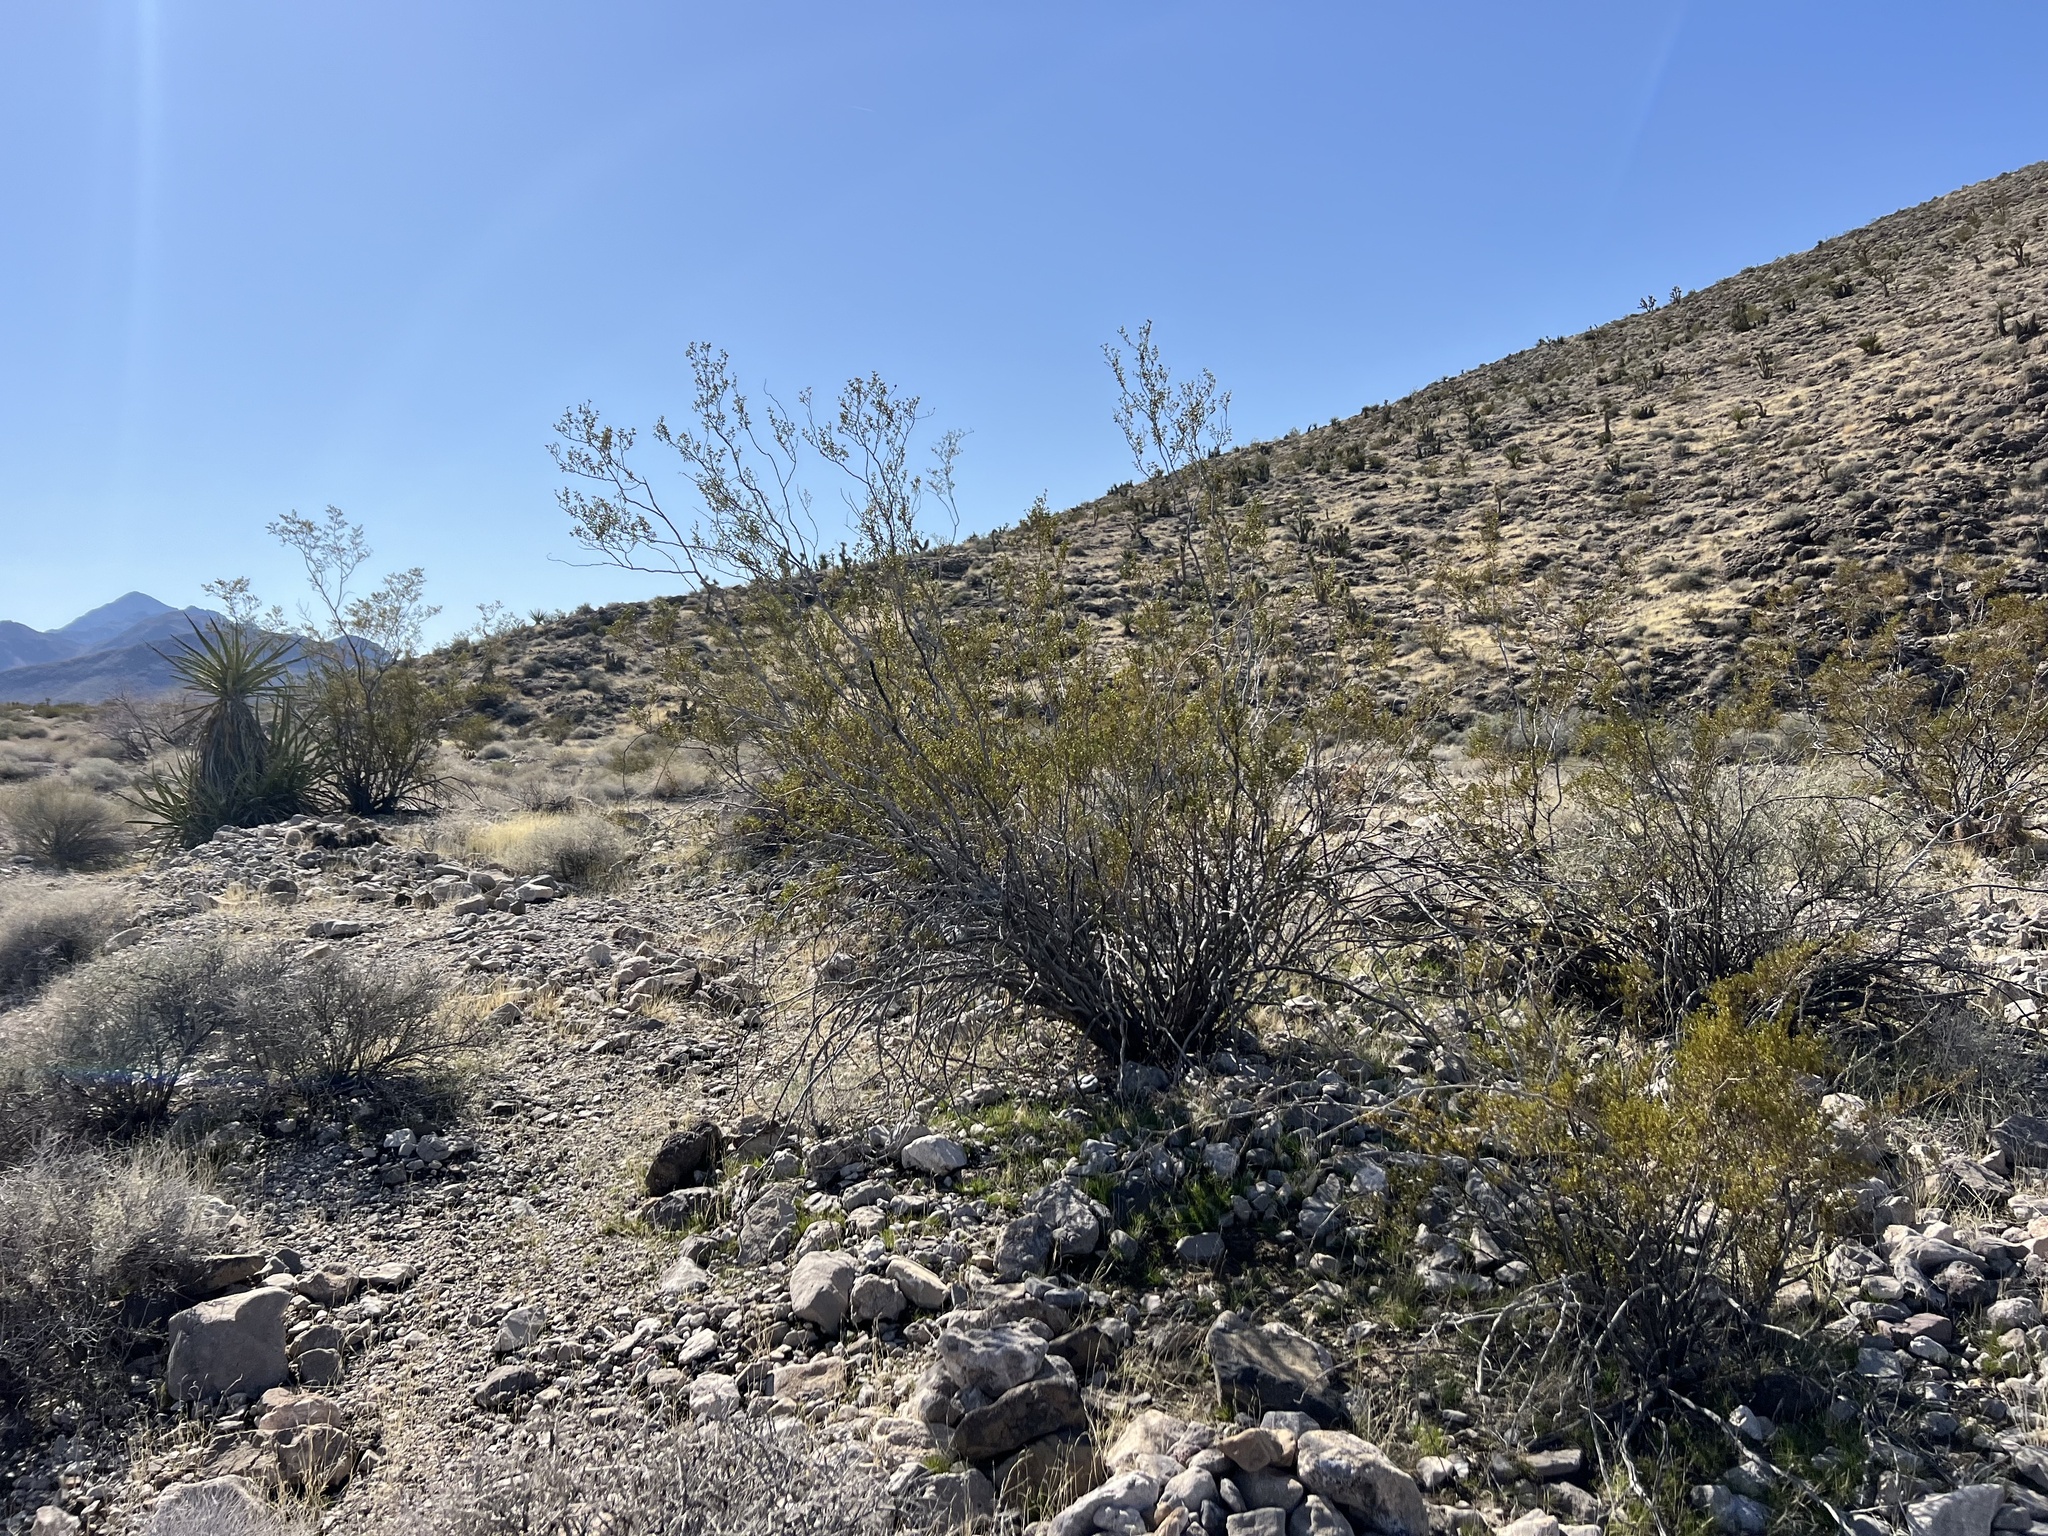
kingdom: Plantae
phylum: Tracheophyta
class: Magnoliopsida
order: Zygophyllales
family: Zygophyllaceae
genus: Larrea
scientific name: Larrea tridentata
